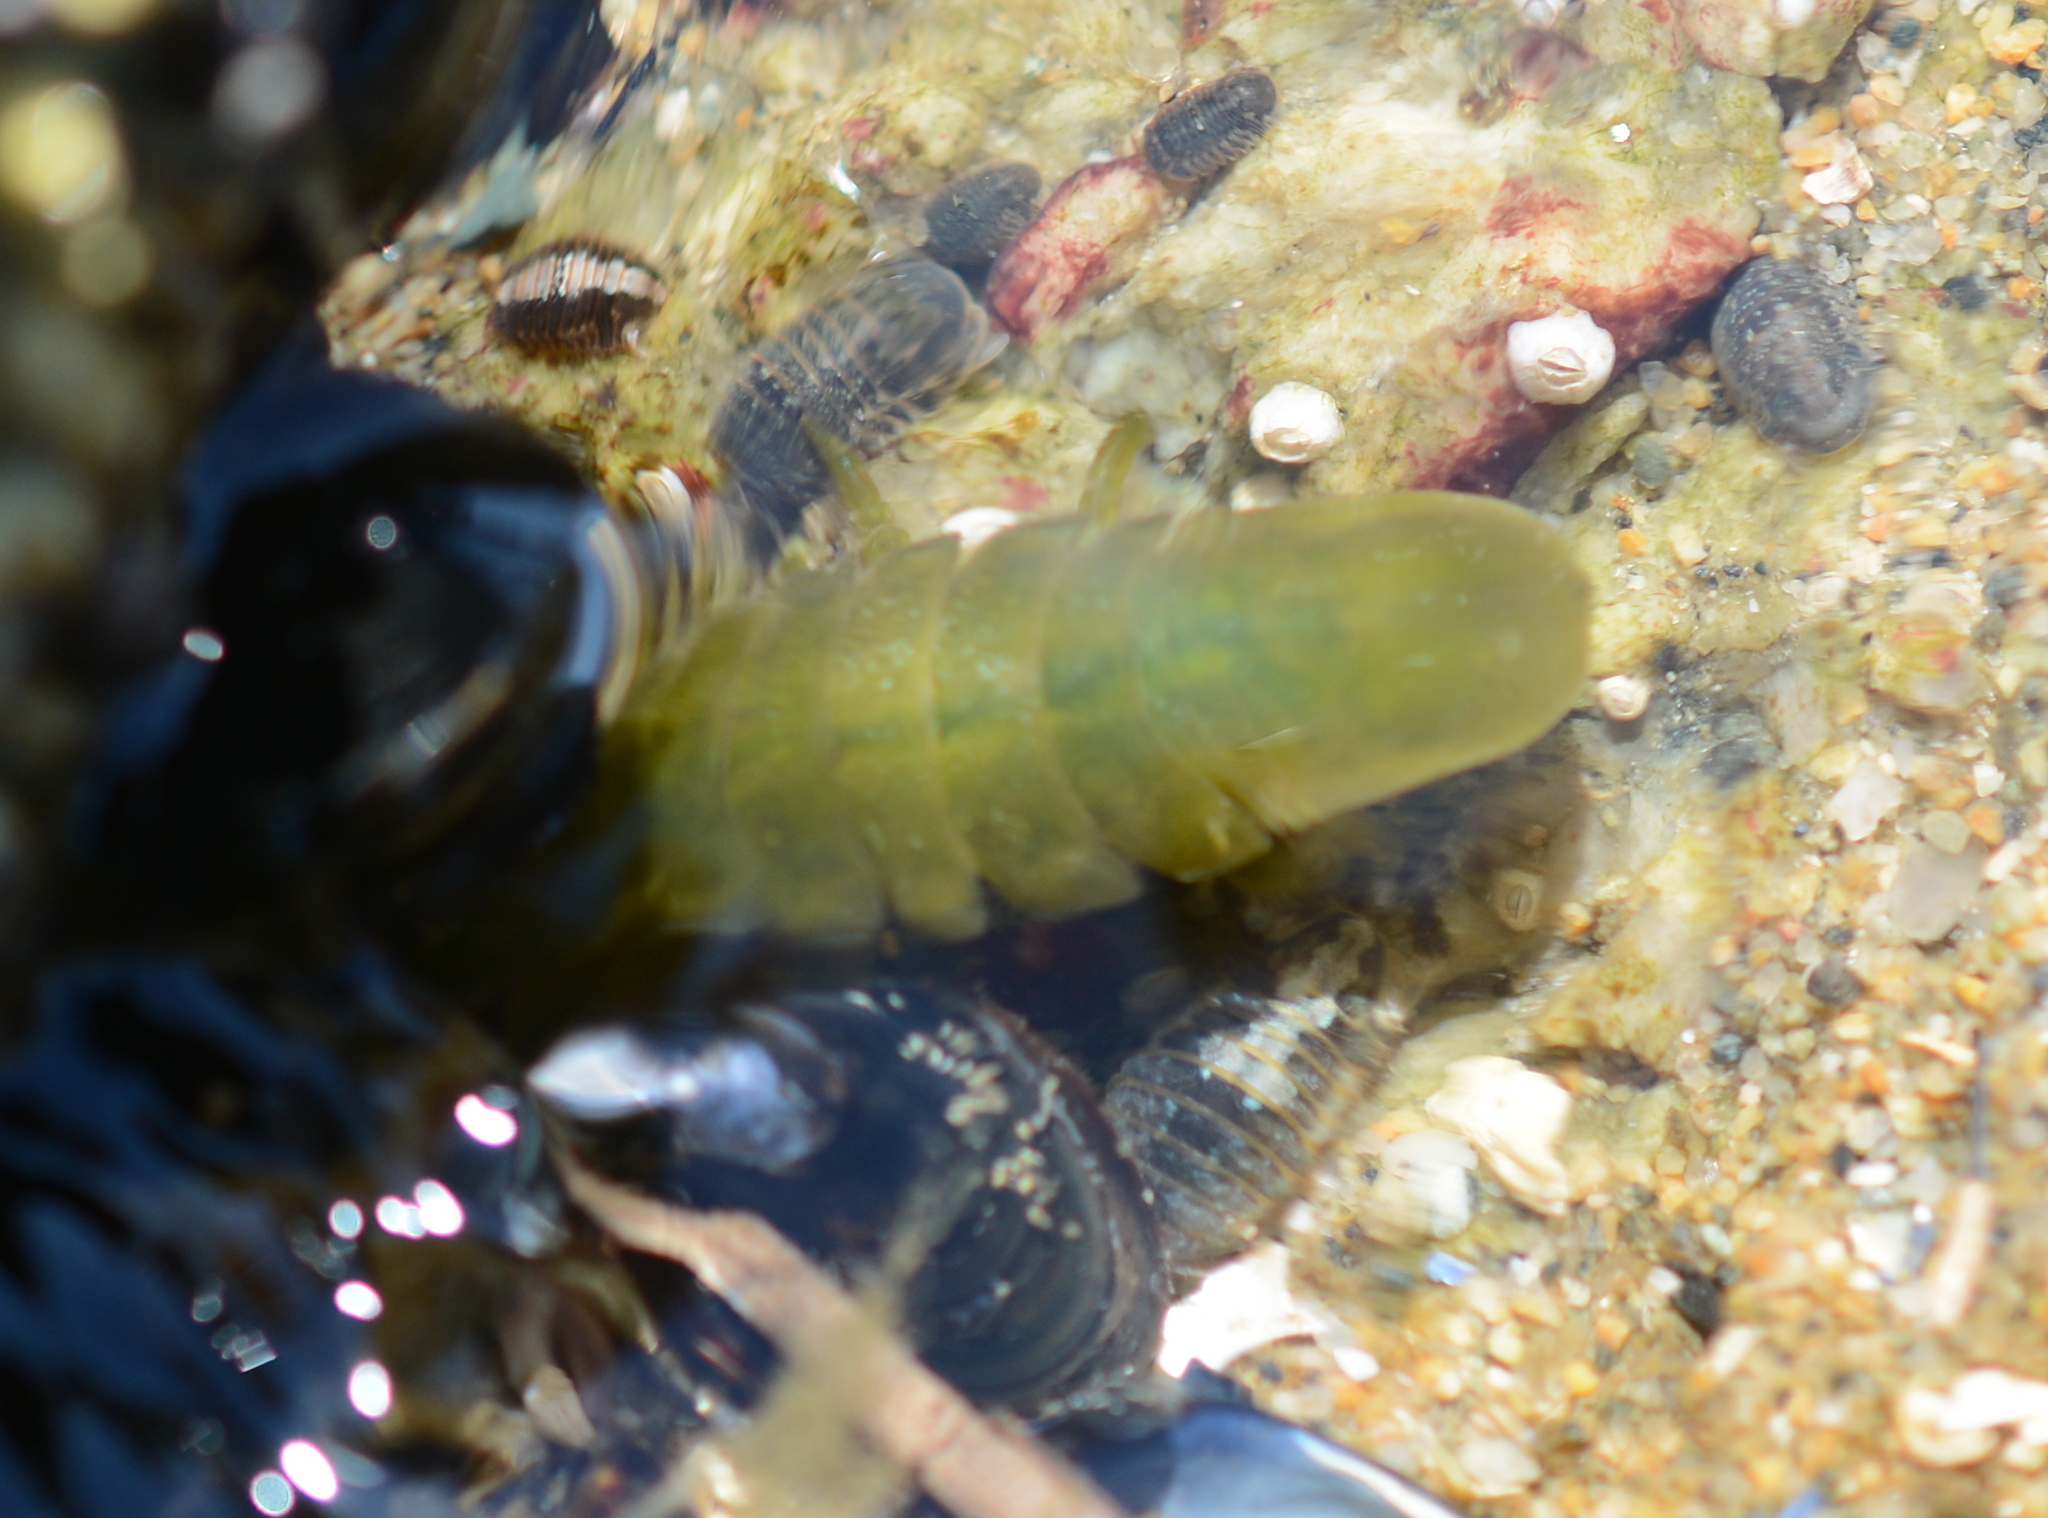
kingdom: Animalia
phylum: Arthropoda
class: Malacostraca
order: Isopoda
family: Idoteidae
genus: Pentidotea
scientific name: Pentidotea wosnesenskii
